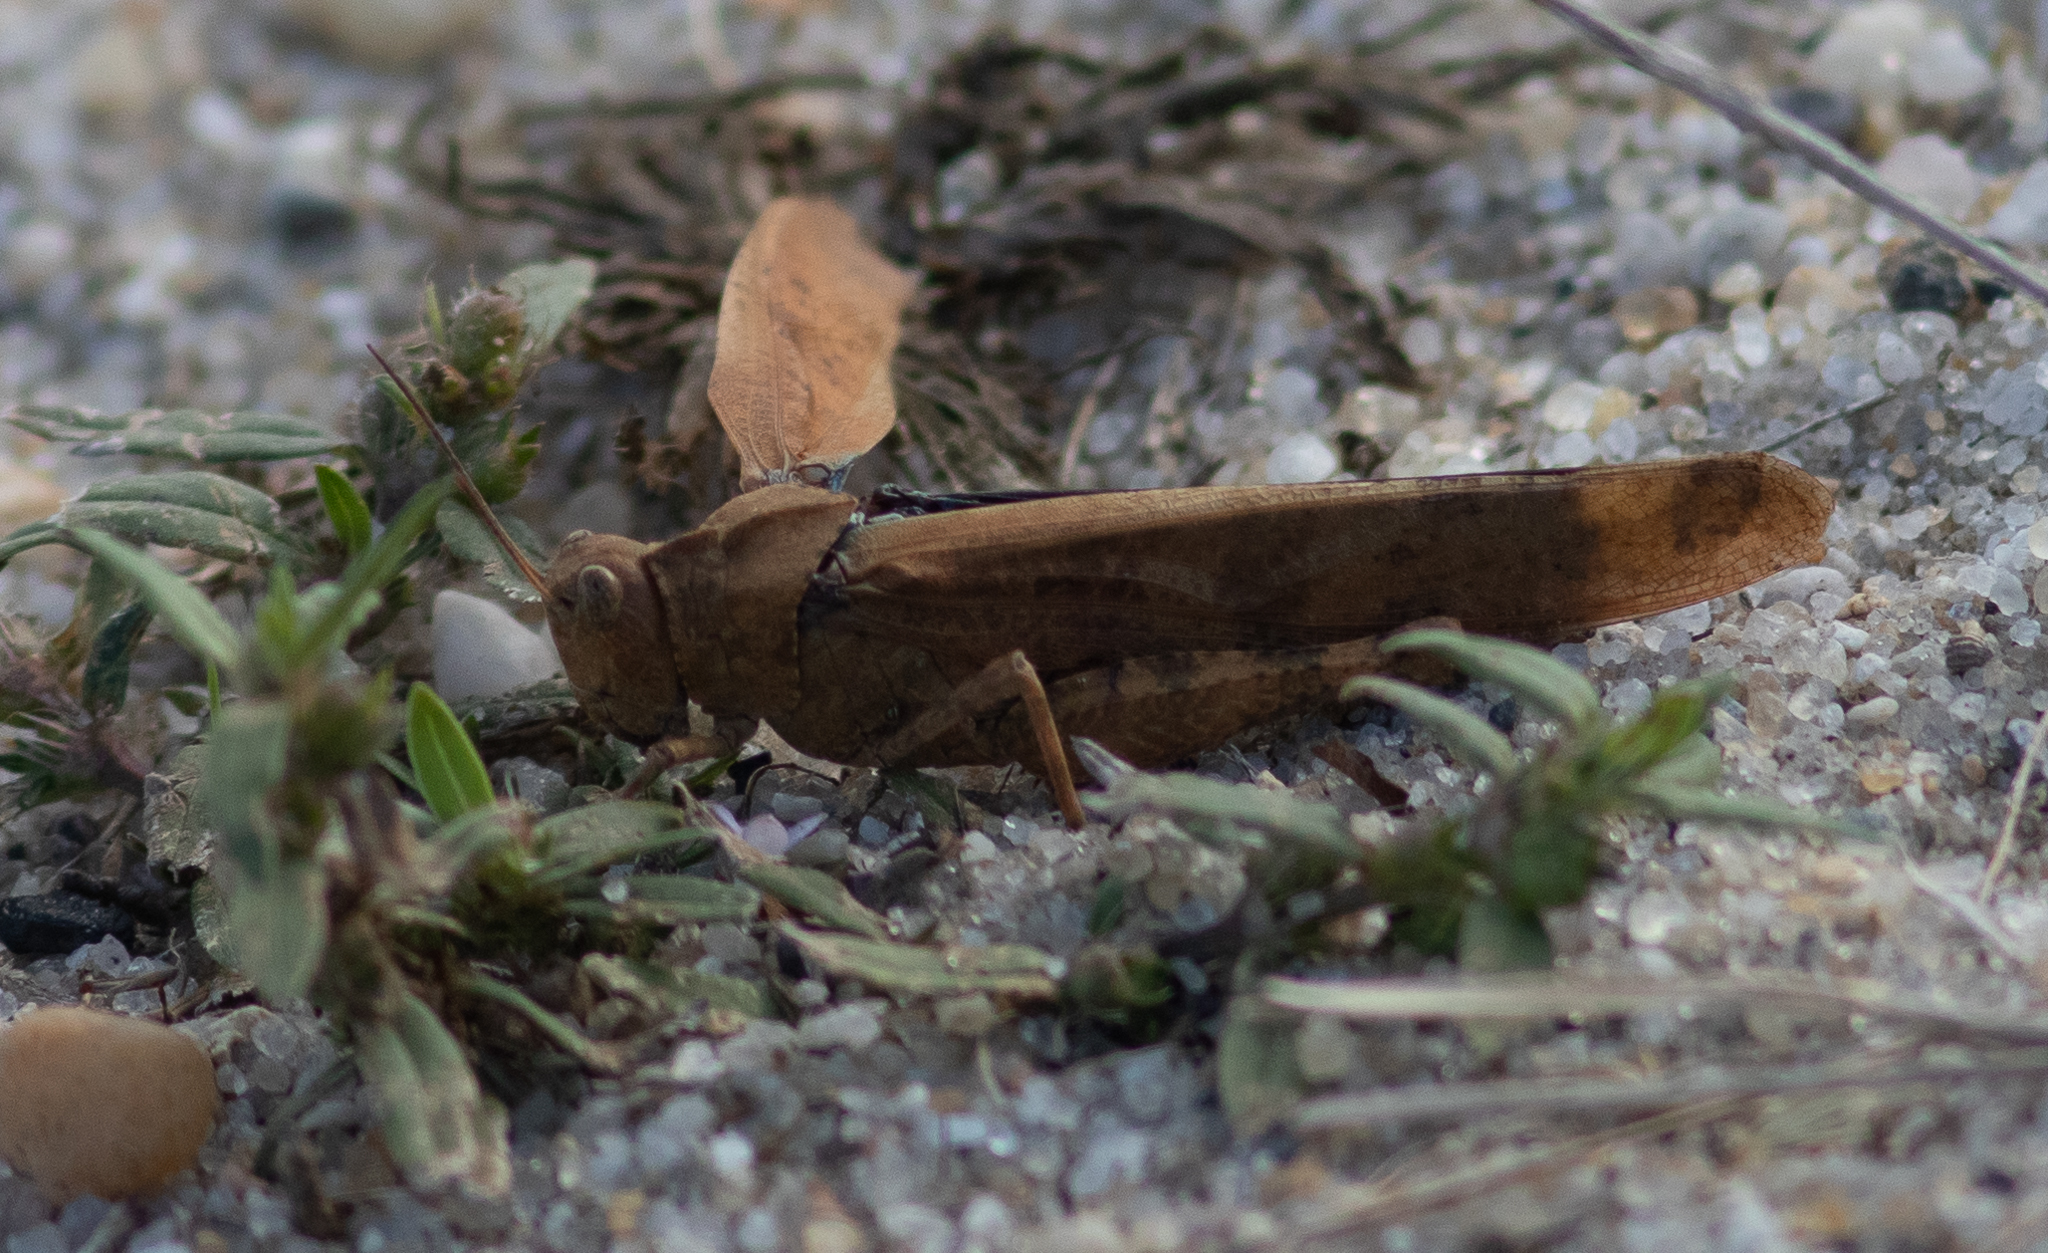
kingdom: Animalia
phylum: Arthropoda
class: Insecta
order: Orthoptera
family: Acrididae
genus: Dissosteira
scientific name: Dissosteira carolina
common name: Carolina grasshopper
